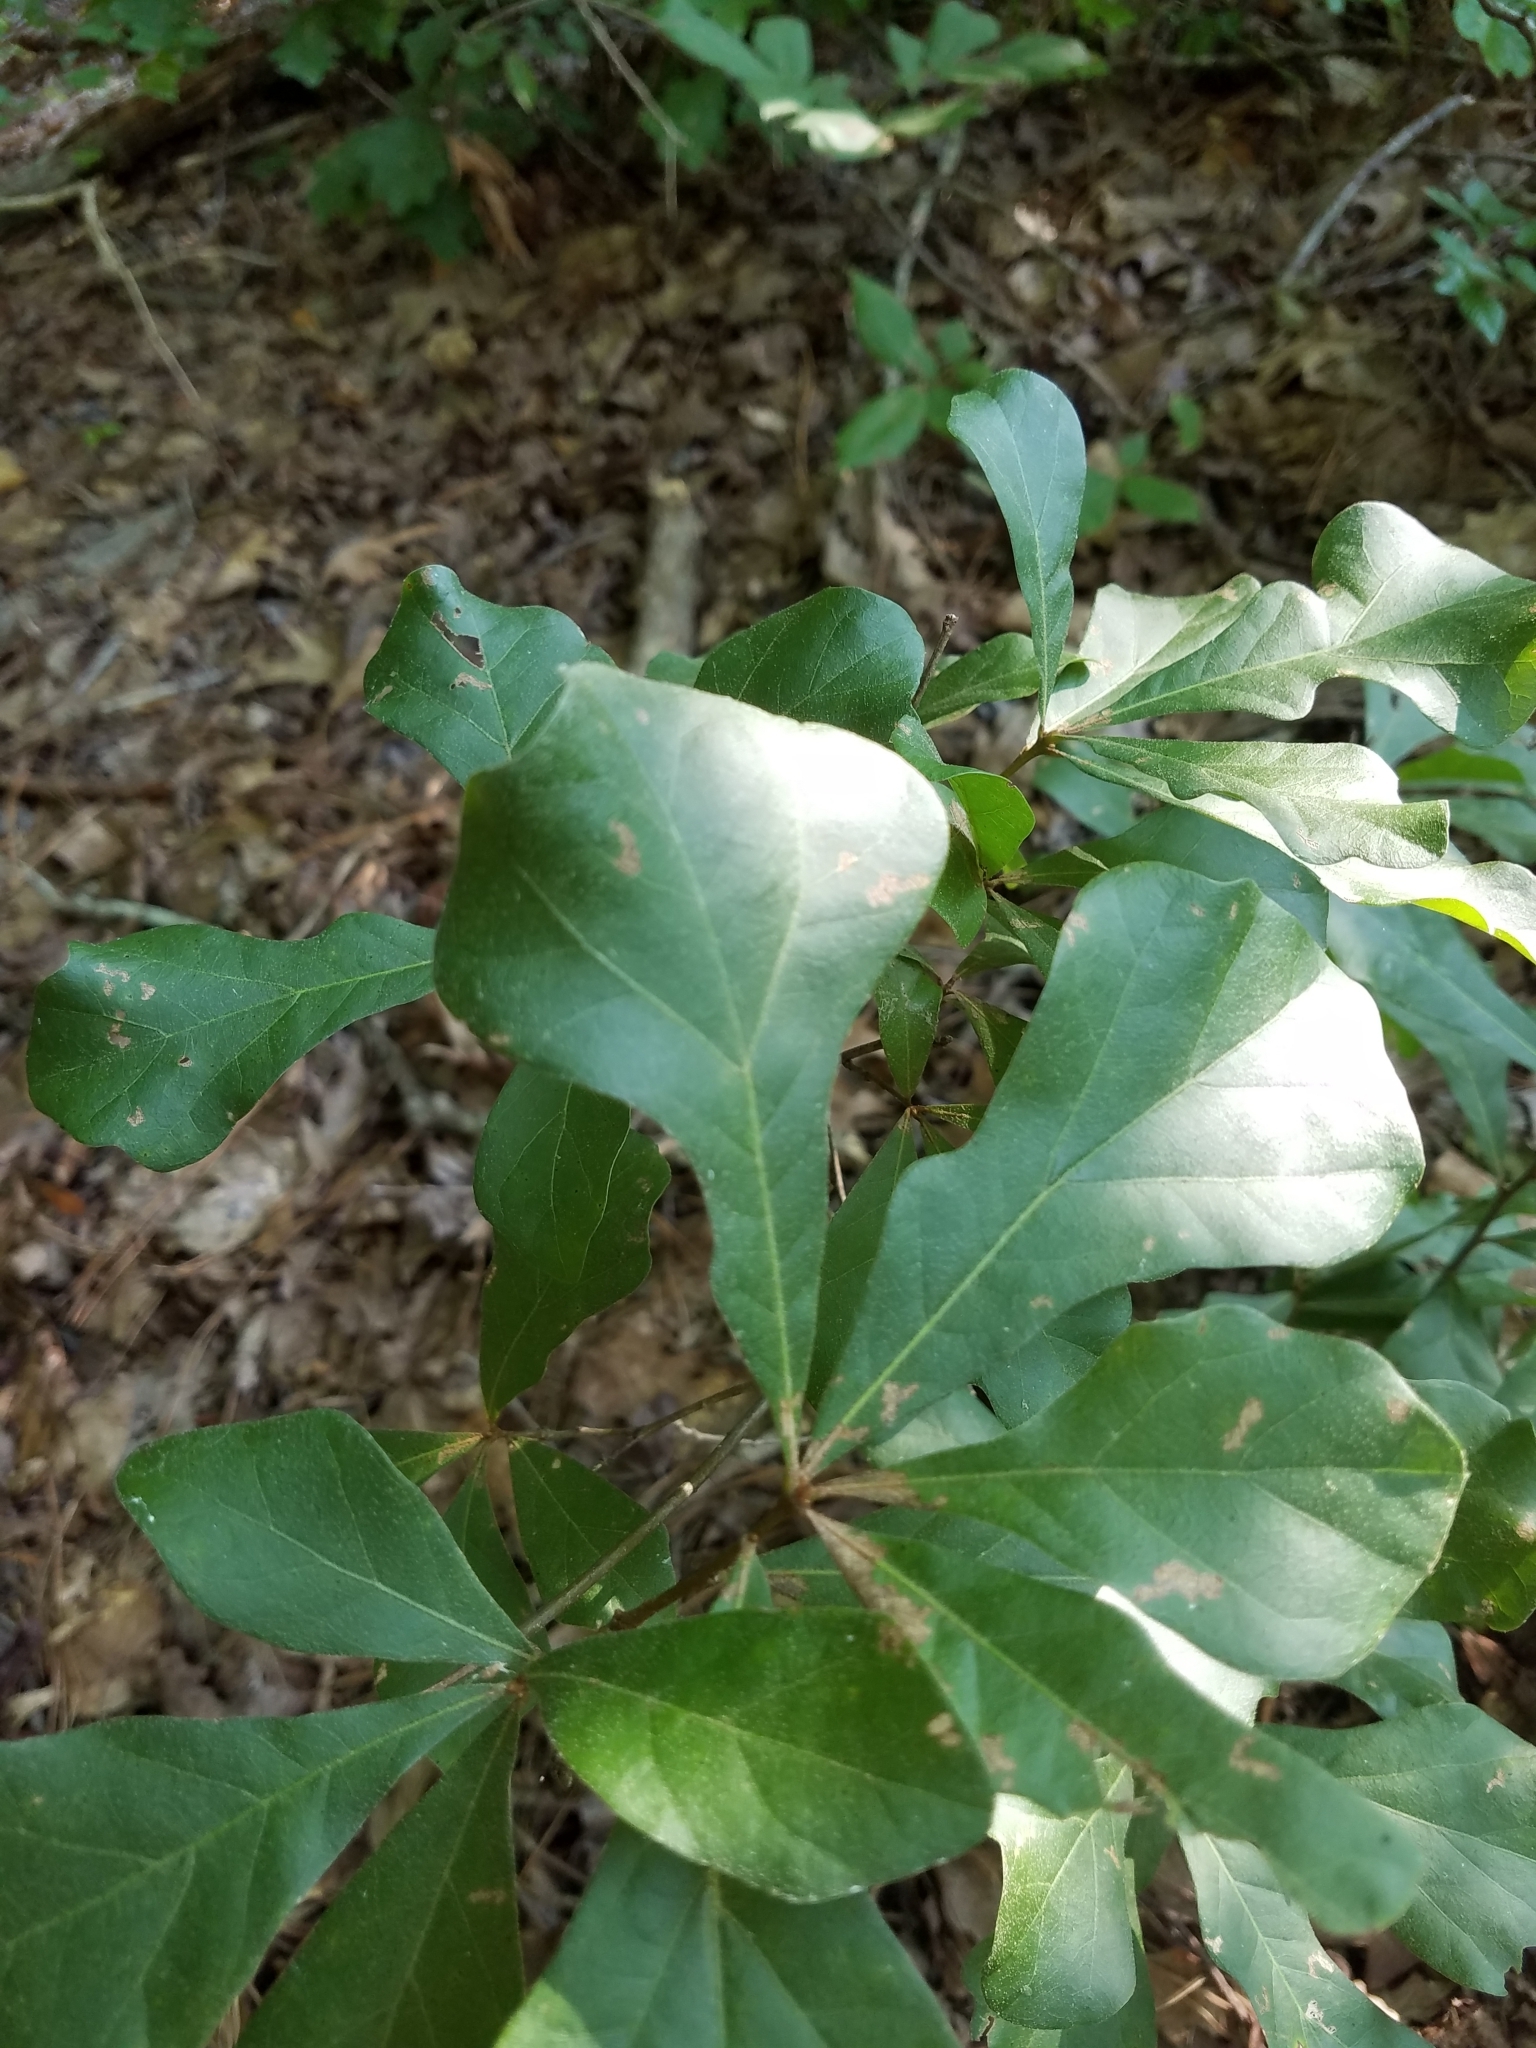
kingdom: Plantae
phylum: Tracheophyta
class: Magnoliopsida
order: Fagales
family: Fagaceae
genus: Quercus
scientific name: Quercus nigra
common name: Water oak
